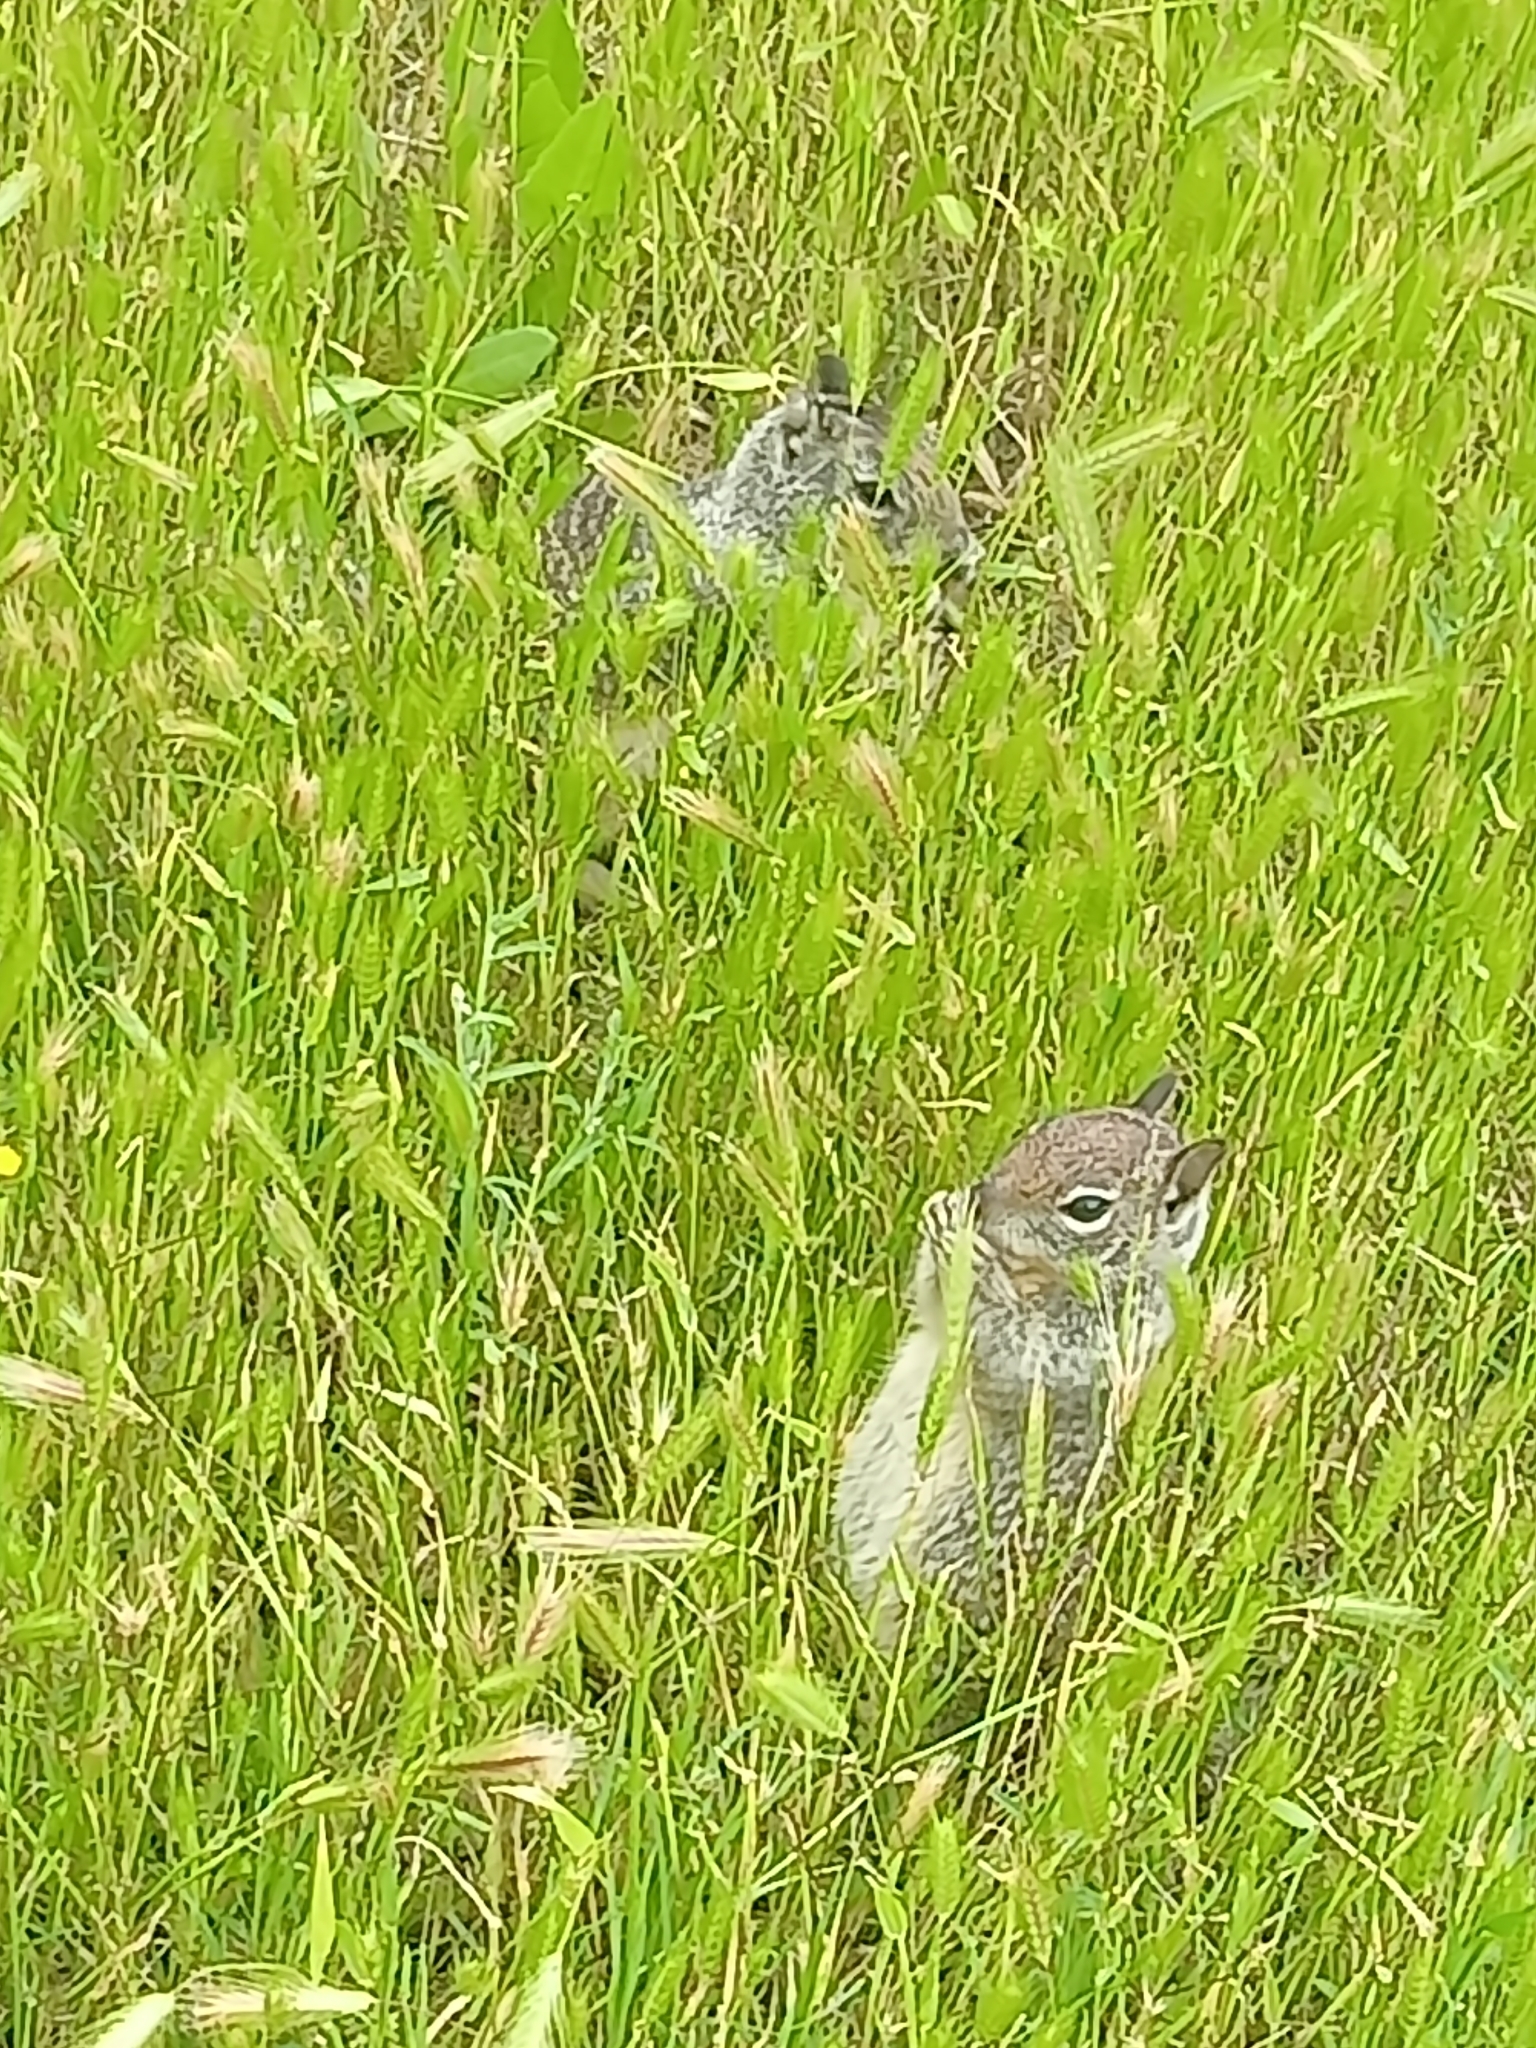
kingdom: Animalia
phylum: Chordata
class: Mammalia
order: Rodentia
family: Sciuridae
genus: Otospermophilus
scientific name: Otospermophilus beecheyi
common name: California ground squirrel
